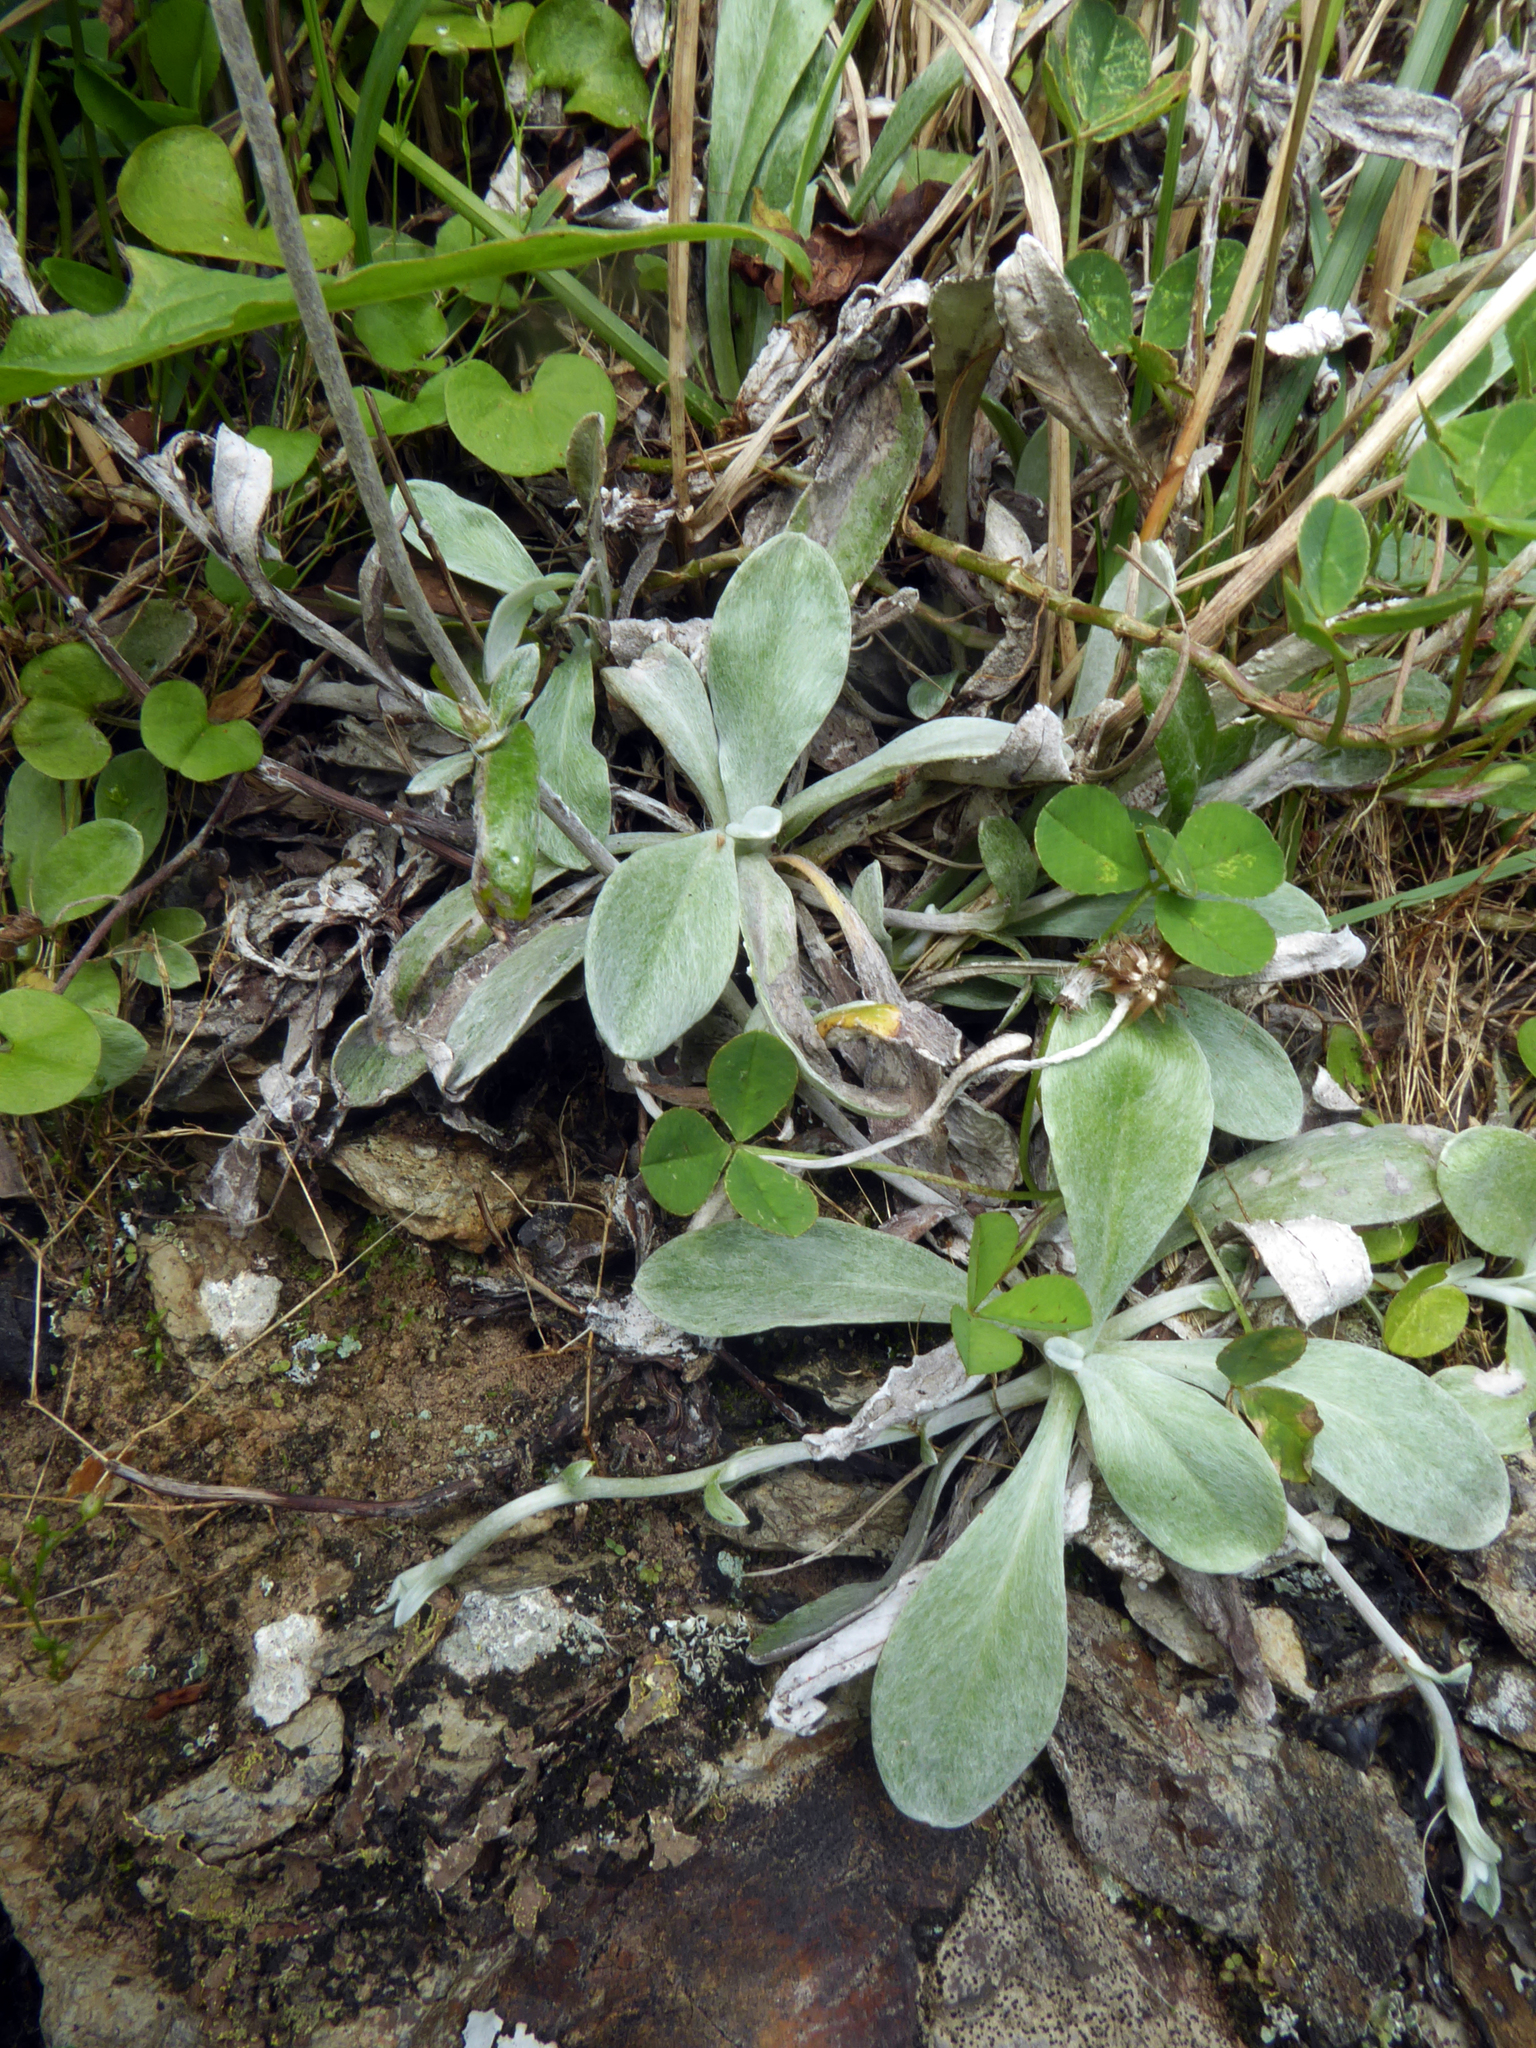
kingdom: Plantae
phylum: Tracheophyta
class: Magnoliopsida
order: Asterales
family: Asteraceae
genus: Euchiton
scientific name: Euchiton audax
